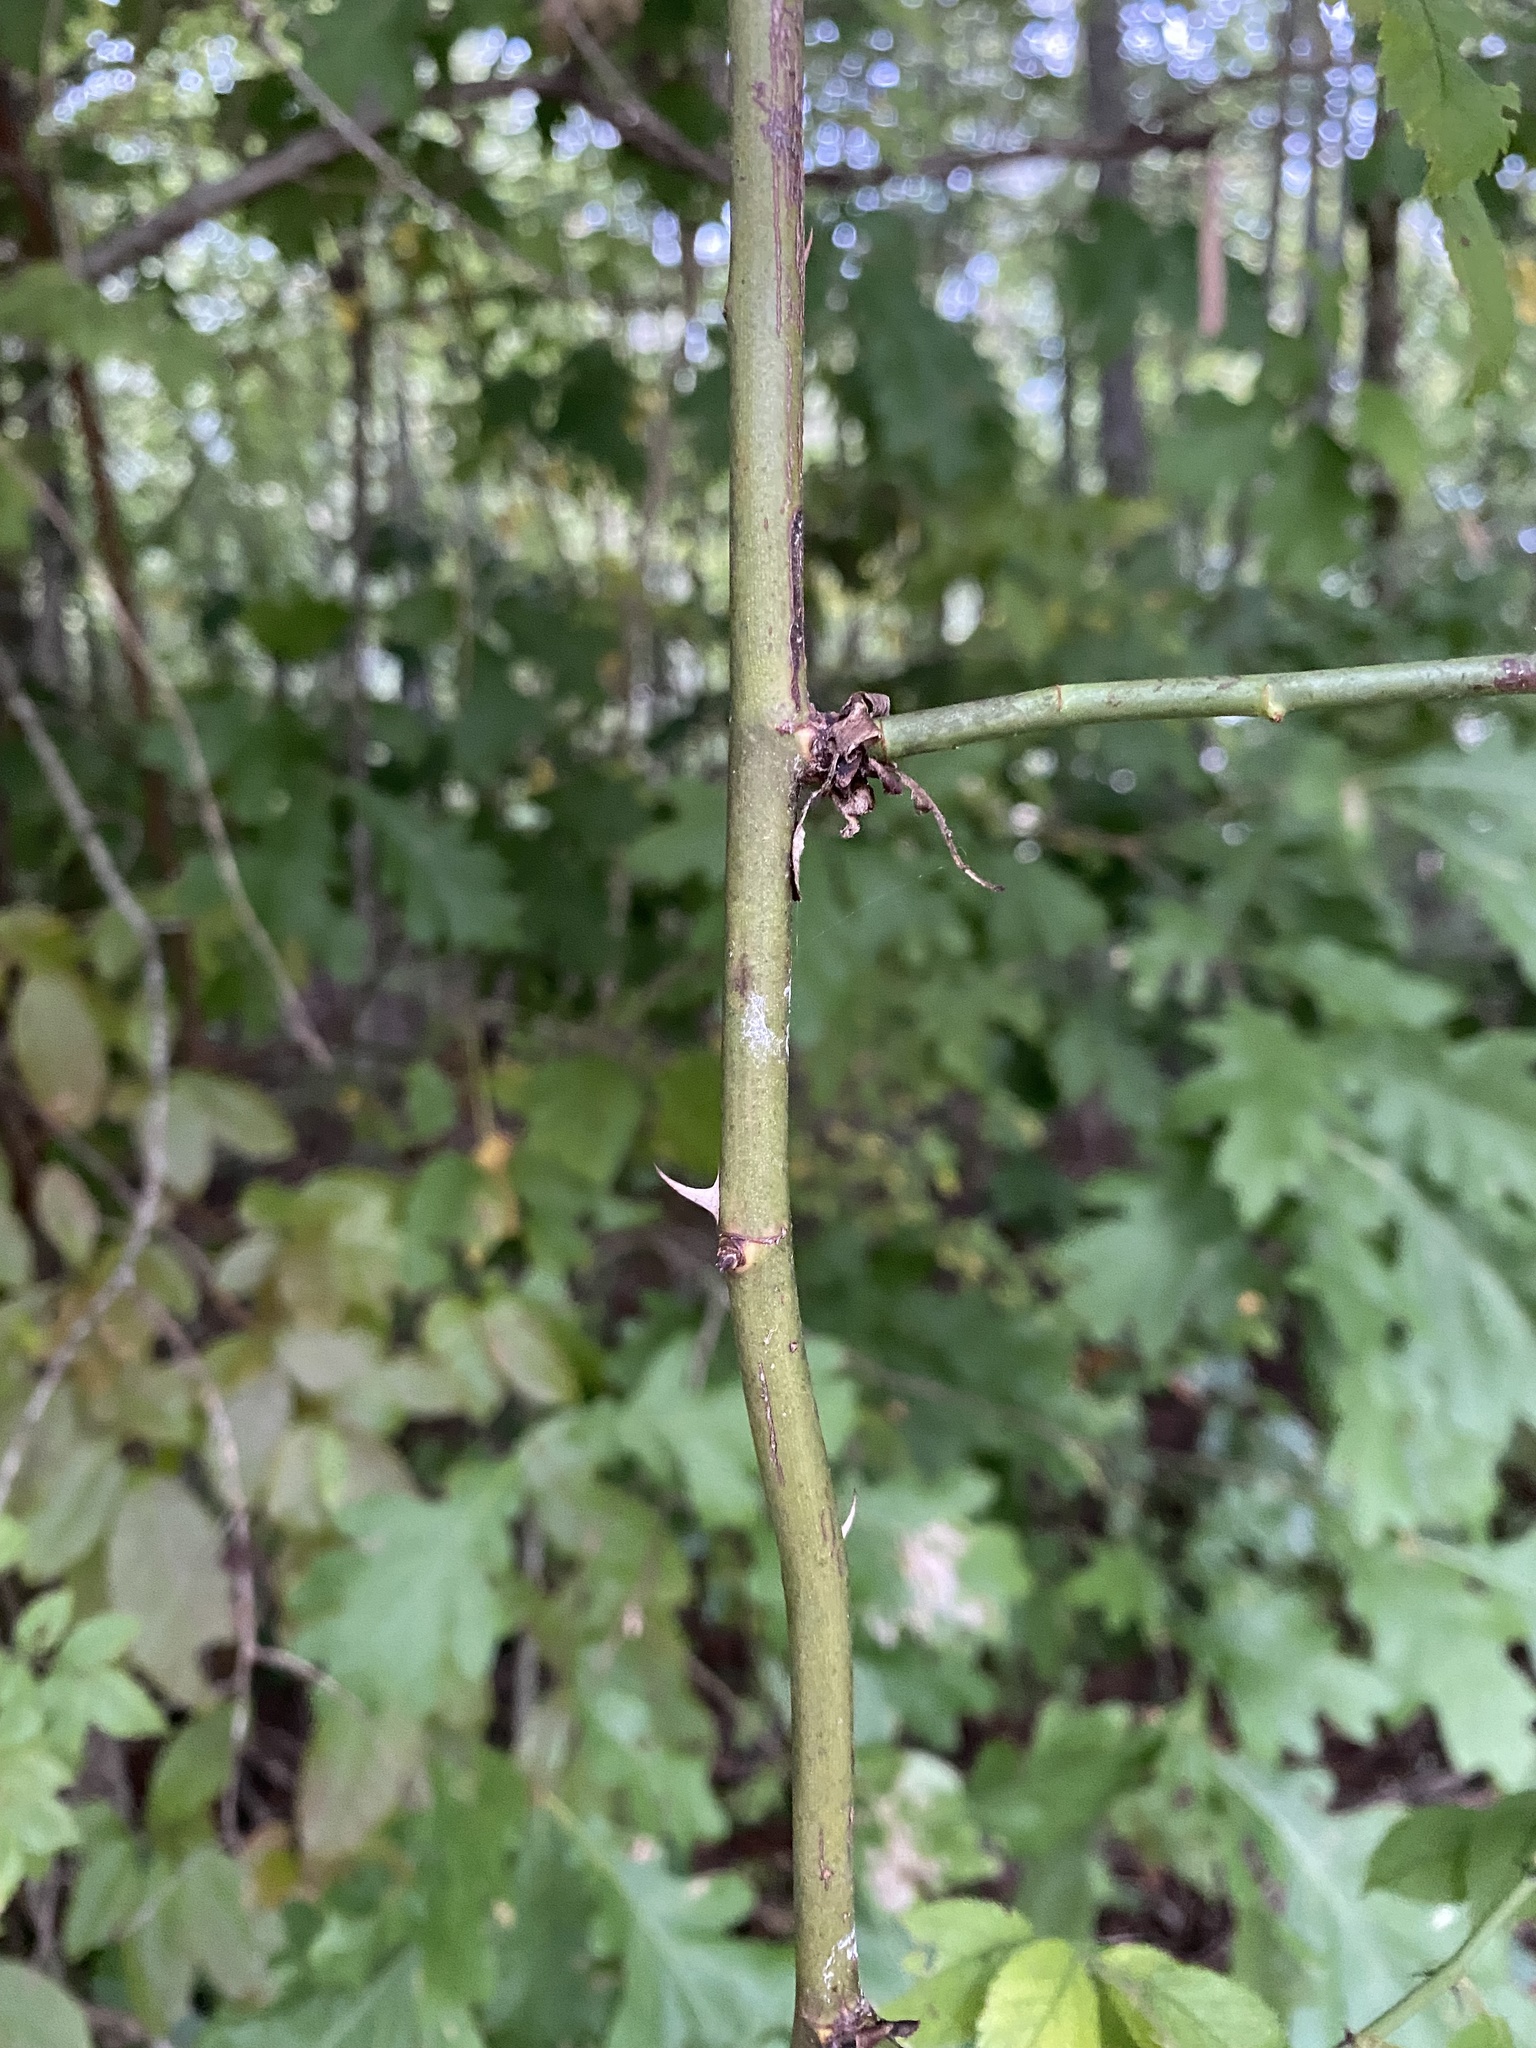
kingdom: Plantae
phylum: Tracheophyta
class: Magnoliopsida
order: Rosales
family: Rosaceae
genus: Rosa
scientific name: Rosa multiflora
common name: Multiflora rose
